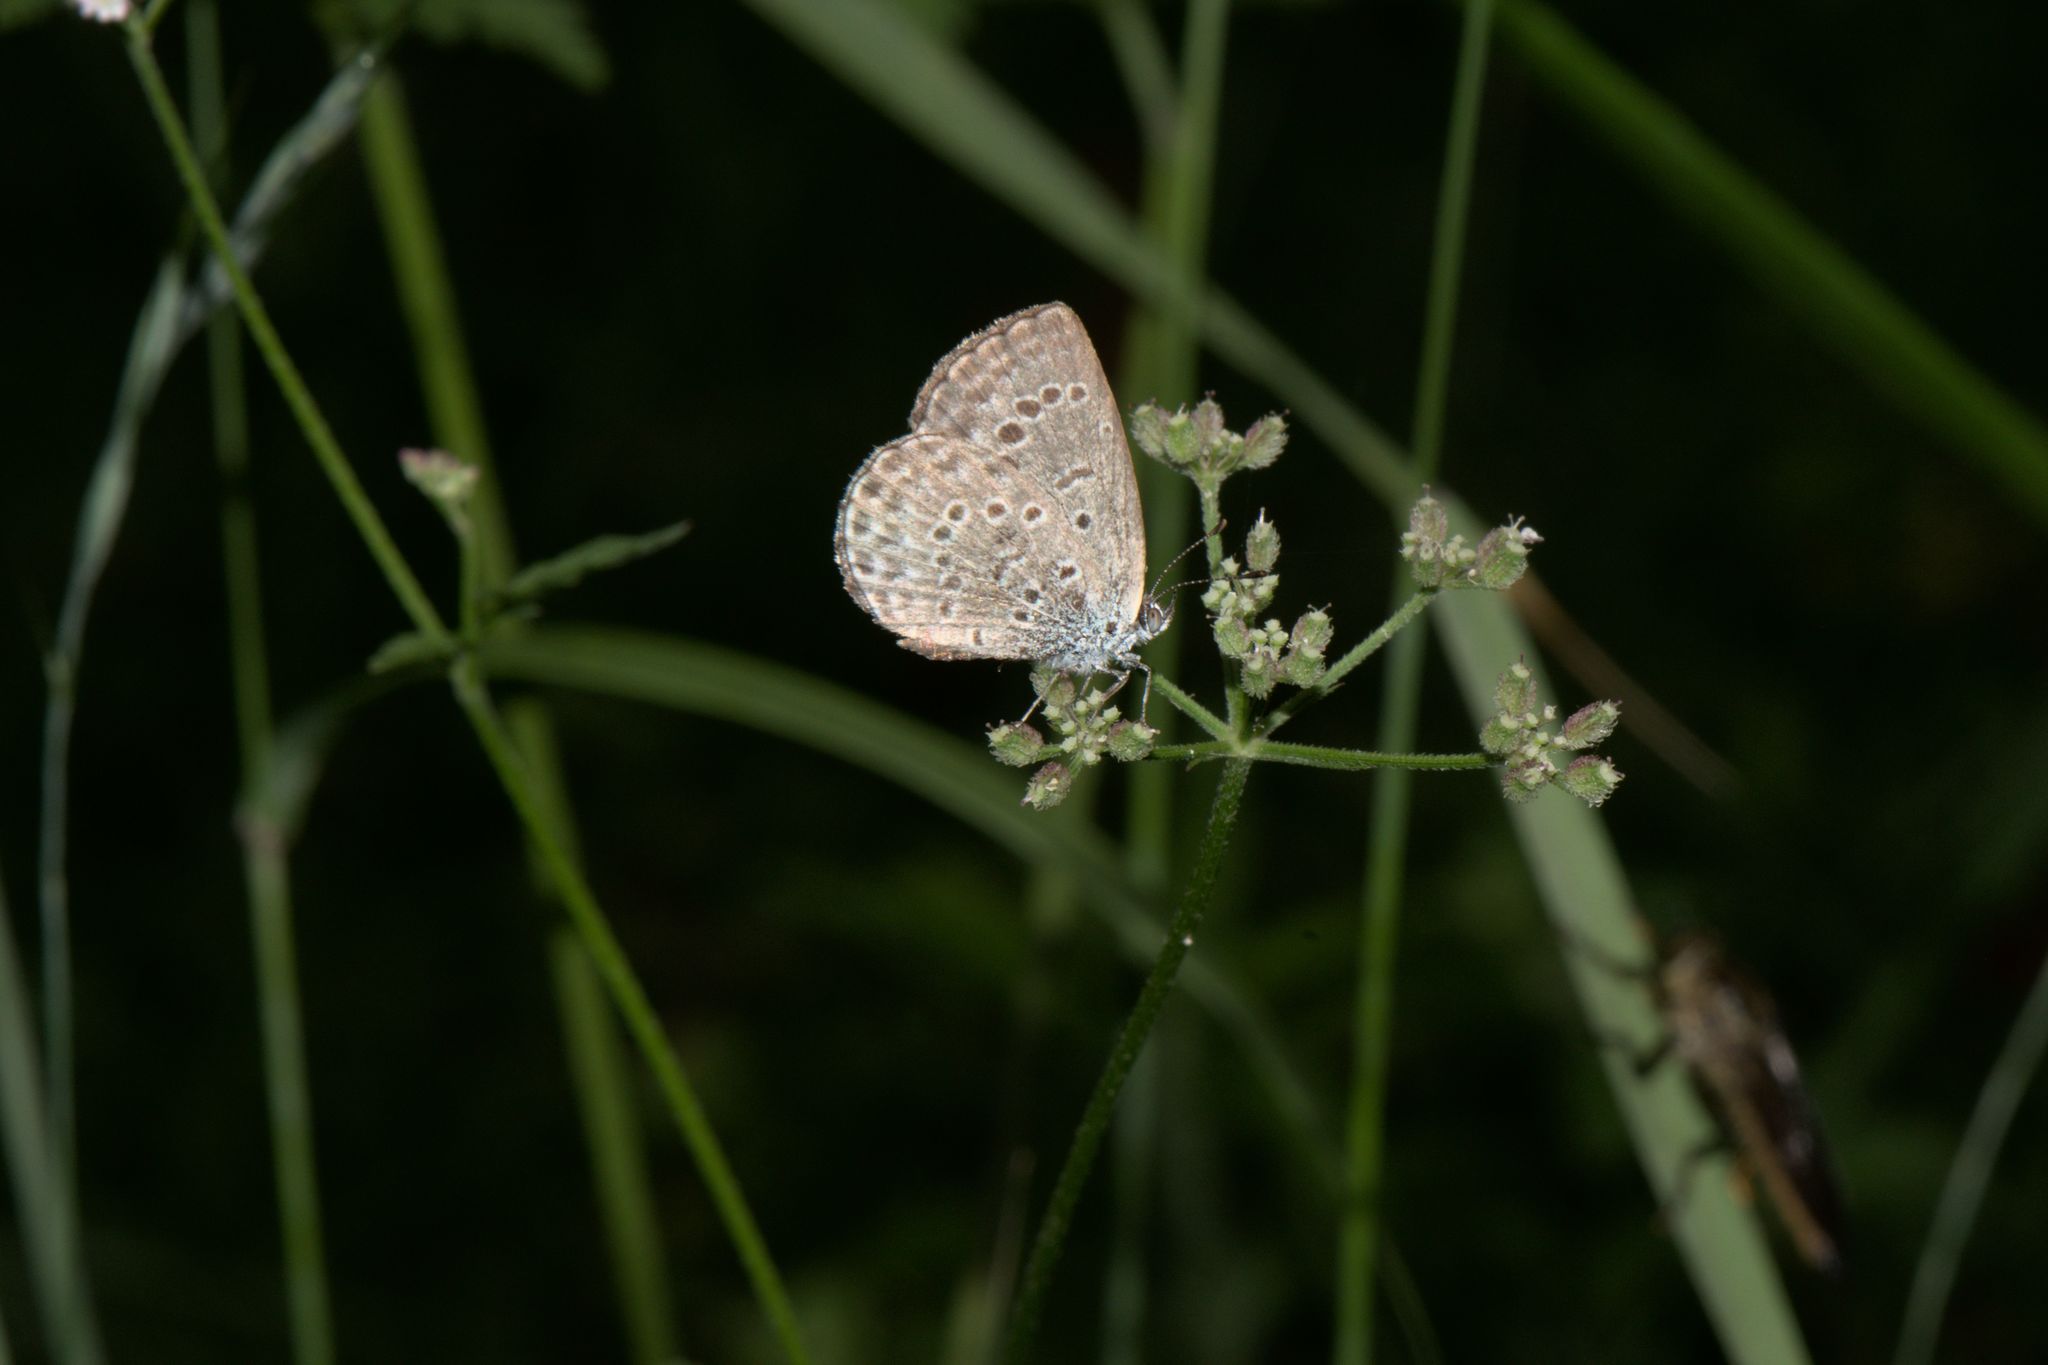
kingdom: Animalia
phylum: Arthropoda
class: Insecta
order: Lepidoptera
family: Lycaenidae
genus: Pseudozizeeria
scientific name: Pseudozizeeria maha
